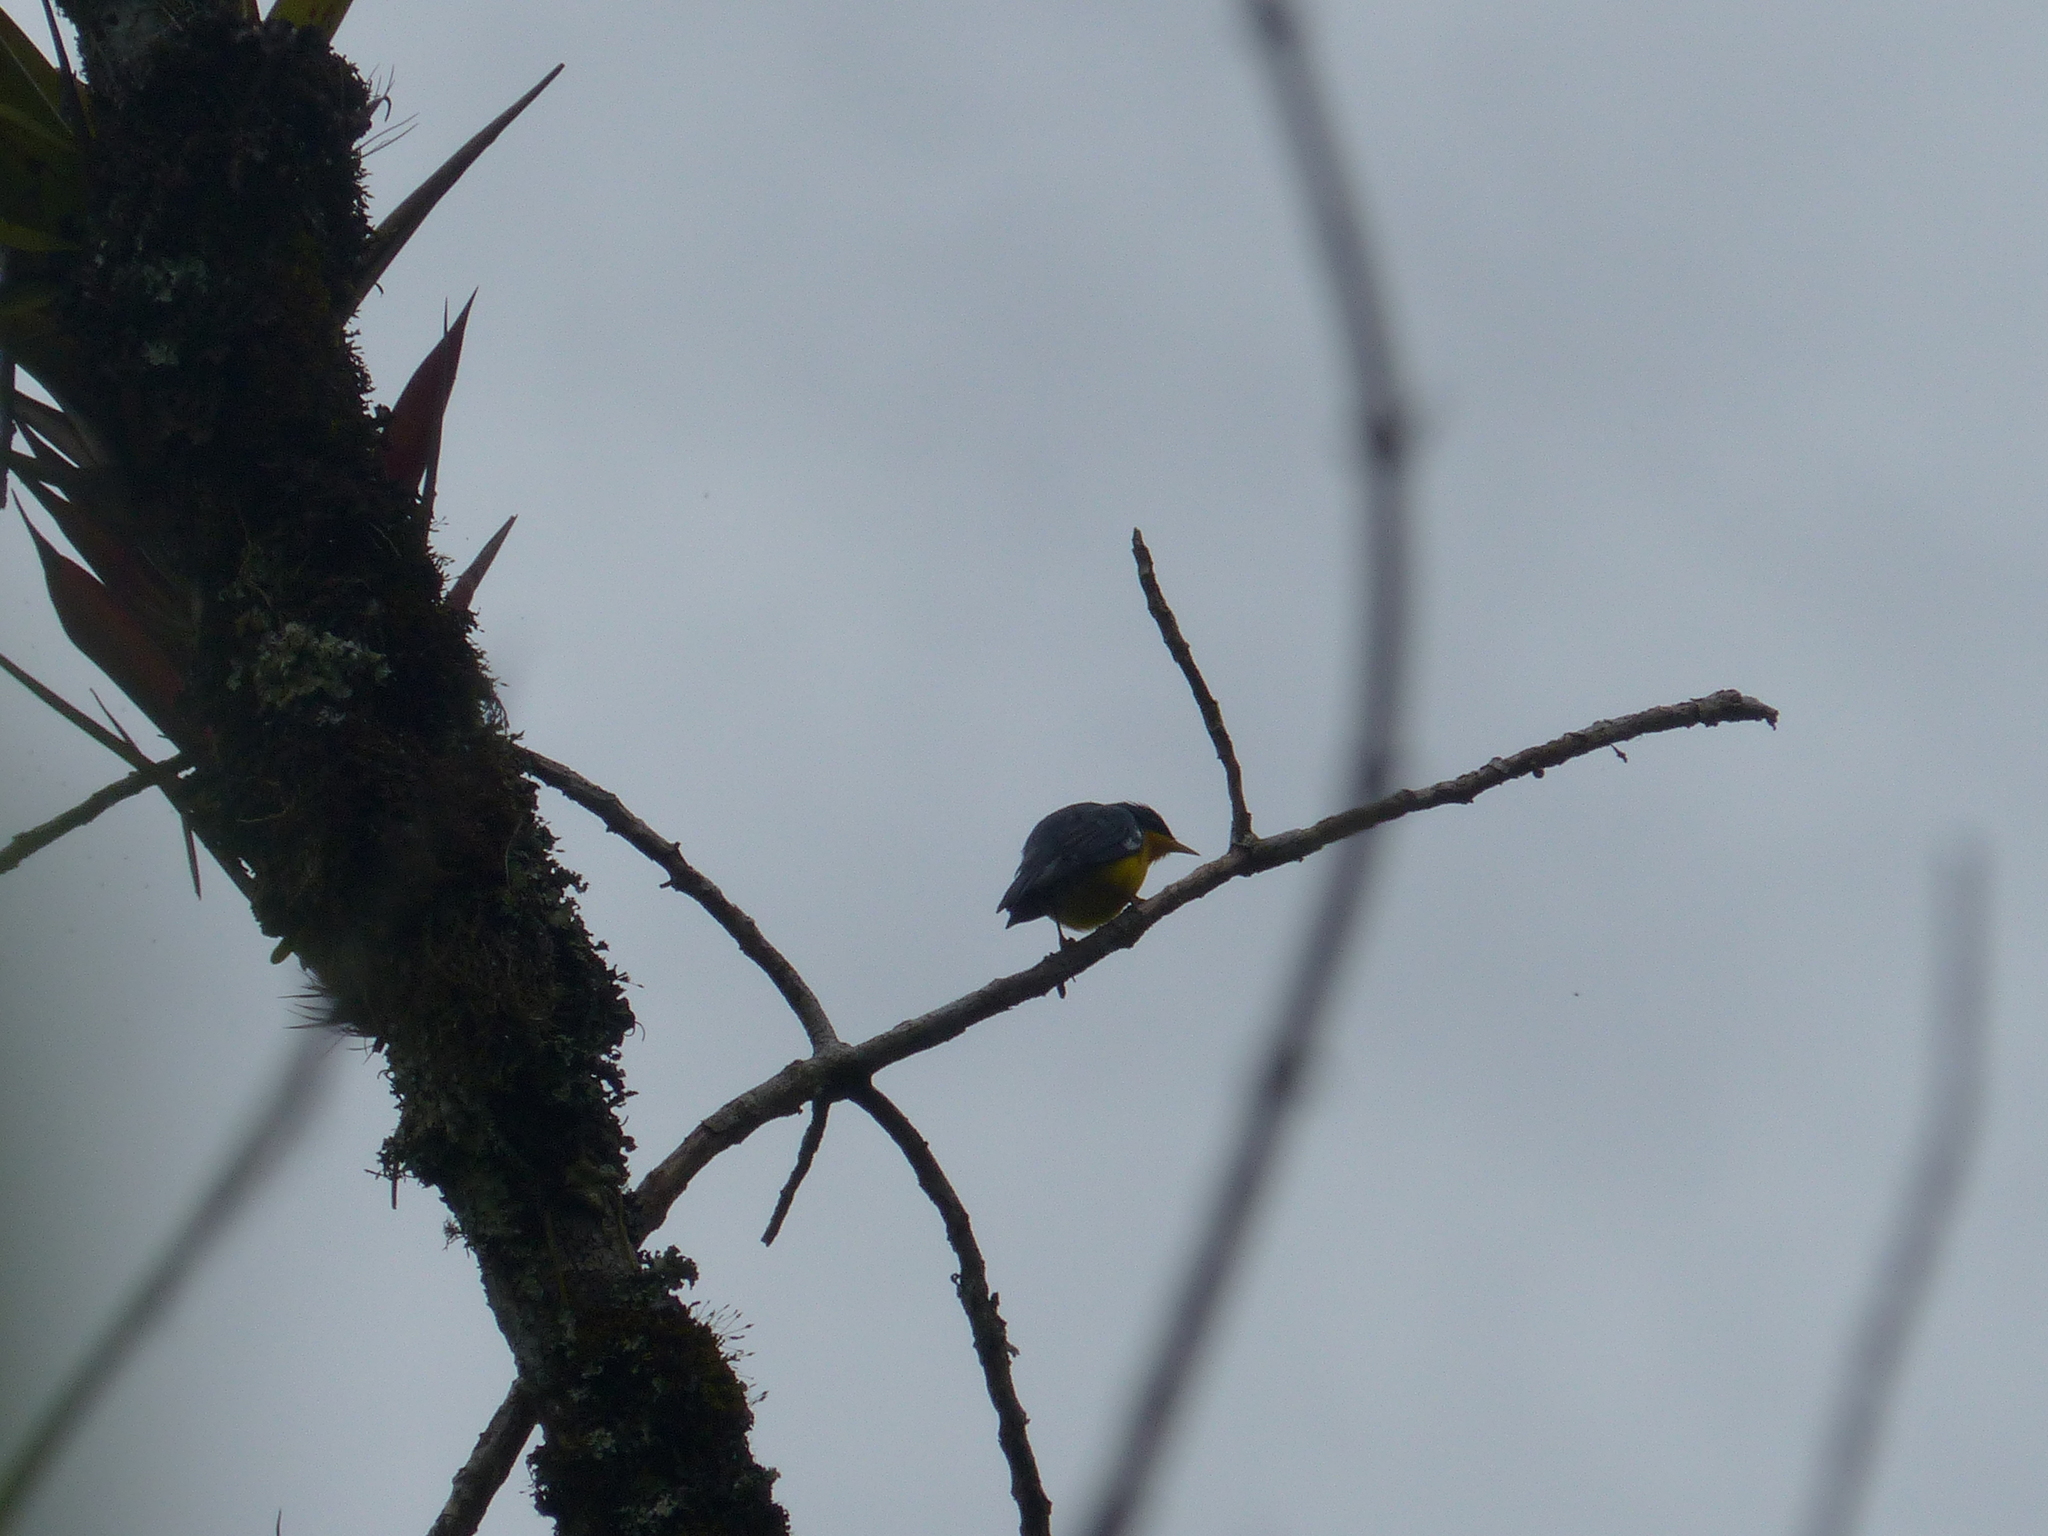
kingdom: Animalia
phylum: Chordata
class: Aves
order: Passeriformes
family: Parulidae
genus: Setophaga
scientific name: Setophaga pitiayumi
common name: Tropical parula
